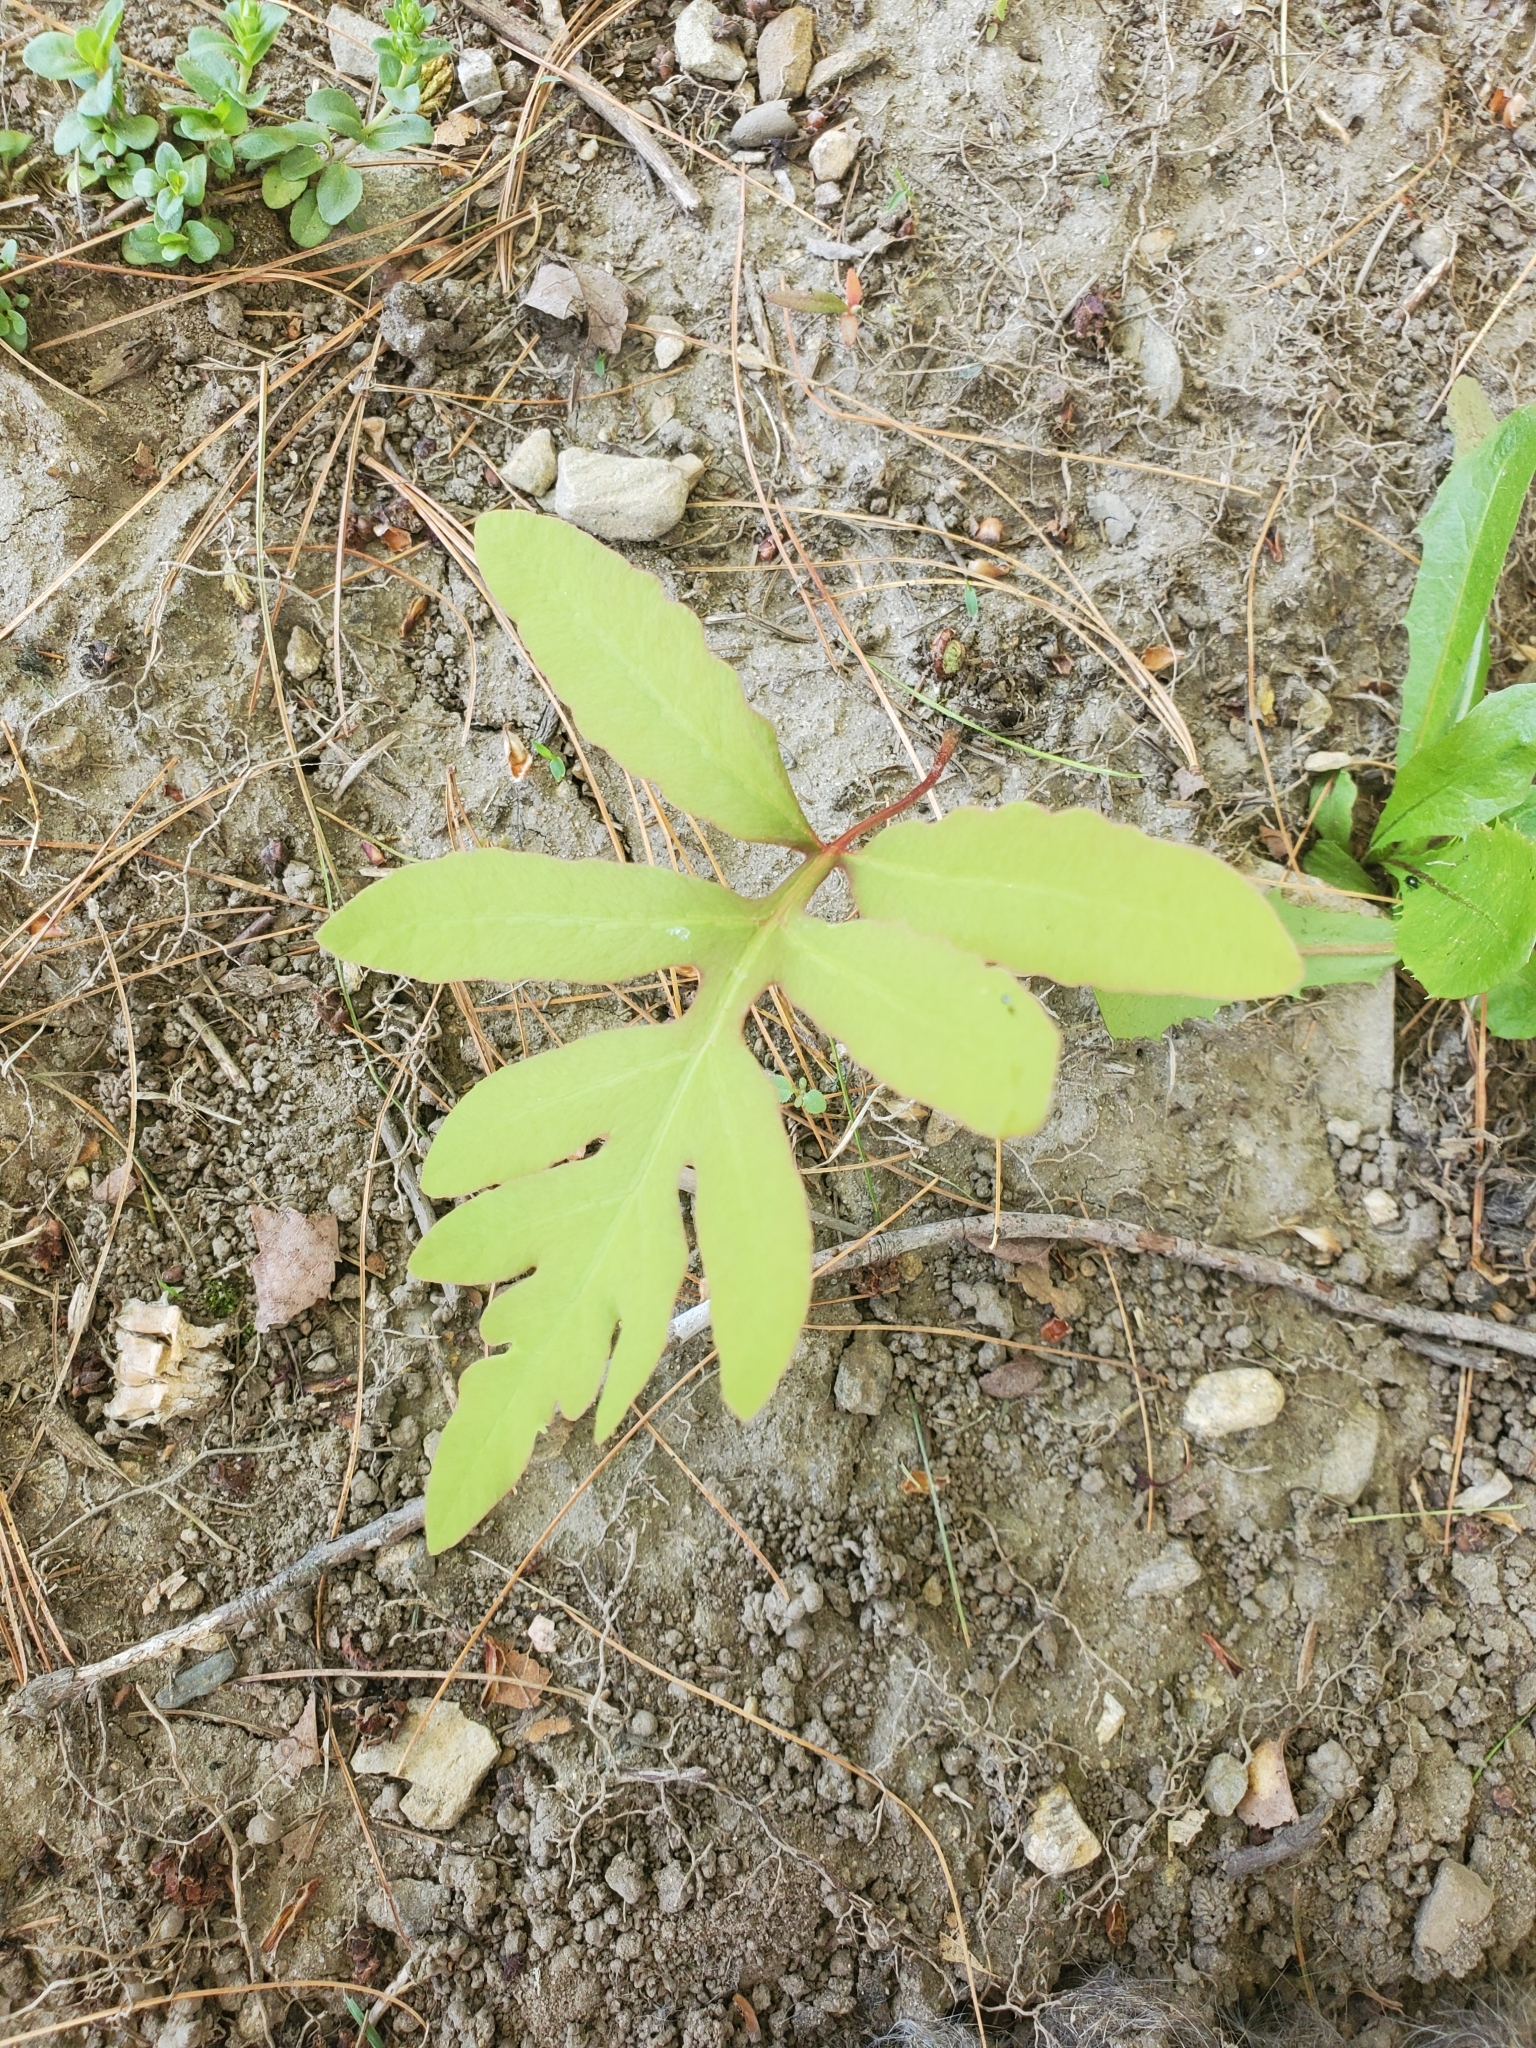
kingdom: Plantae
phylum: Tracheophyta
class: Polypodiopsida
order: Polypodiales
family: Onocleaceae
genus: Onoclea
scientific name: Onoclea sensibilis
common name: Sensitive fern
